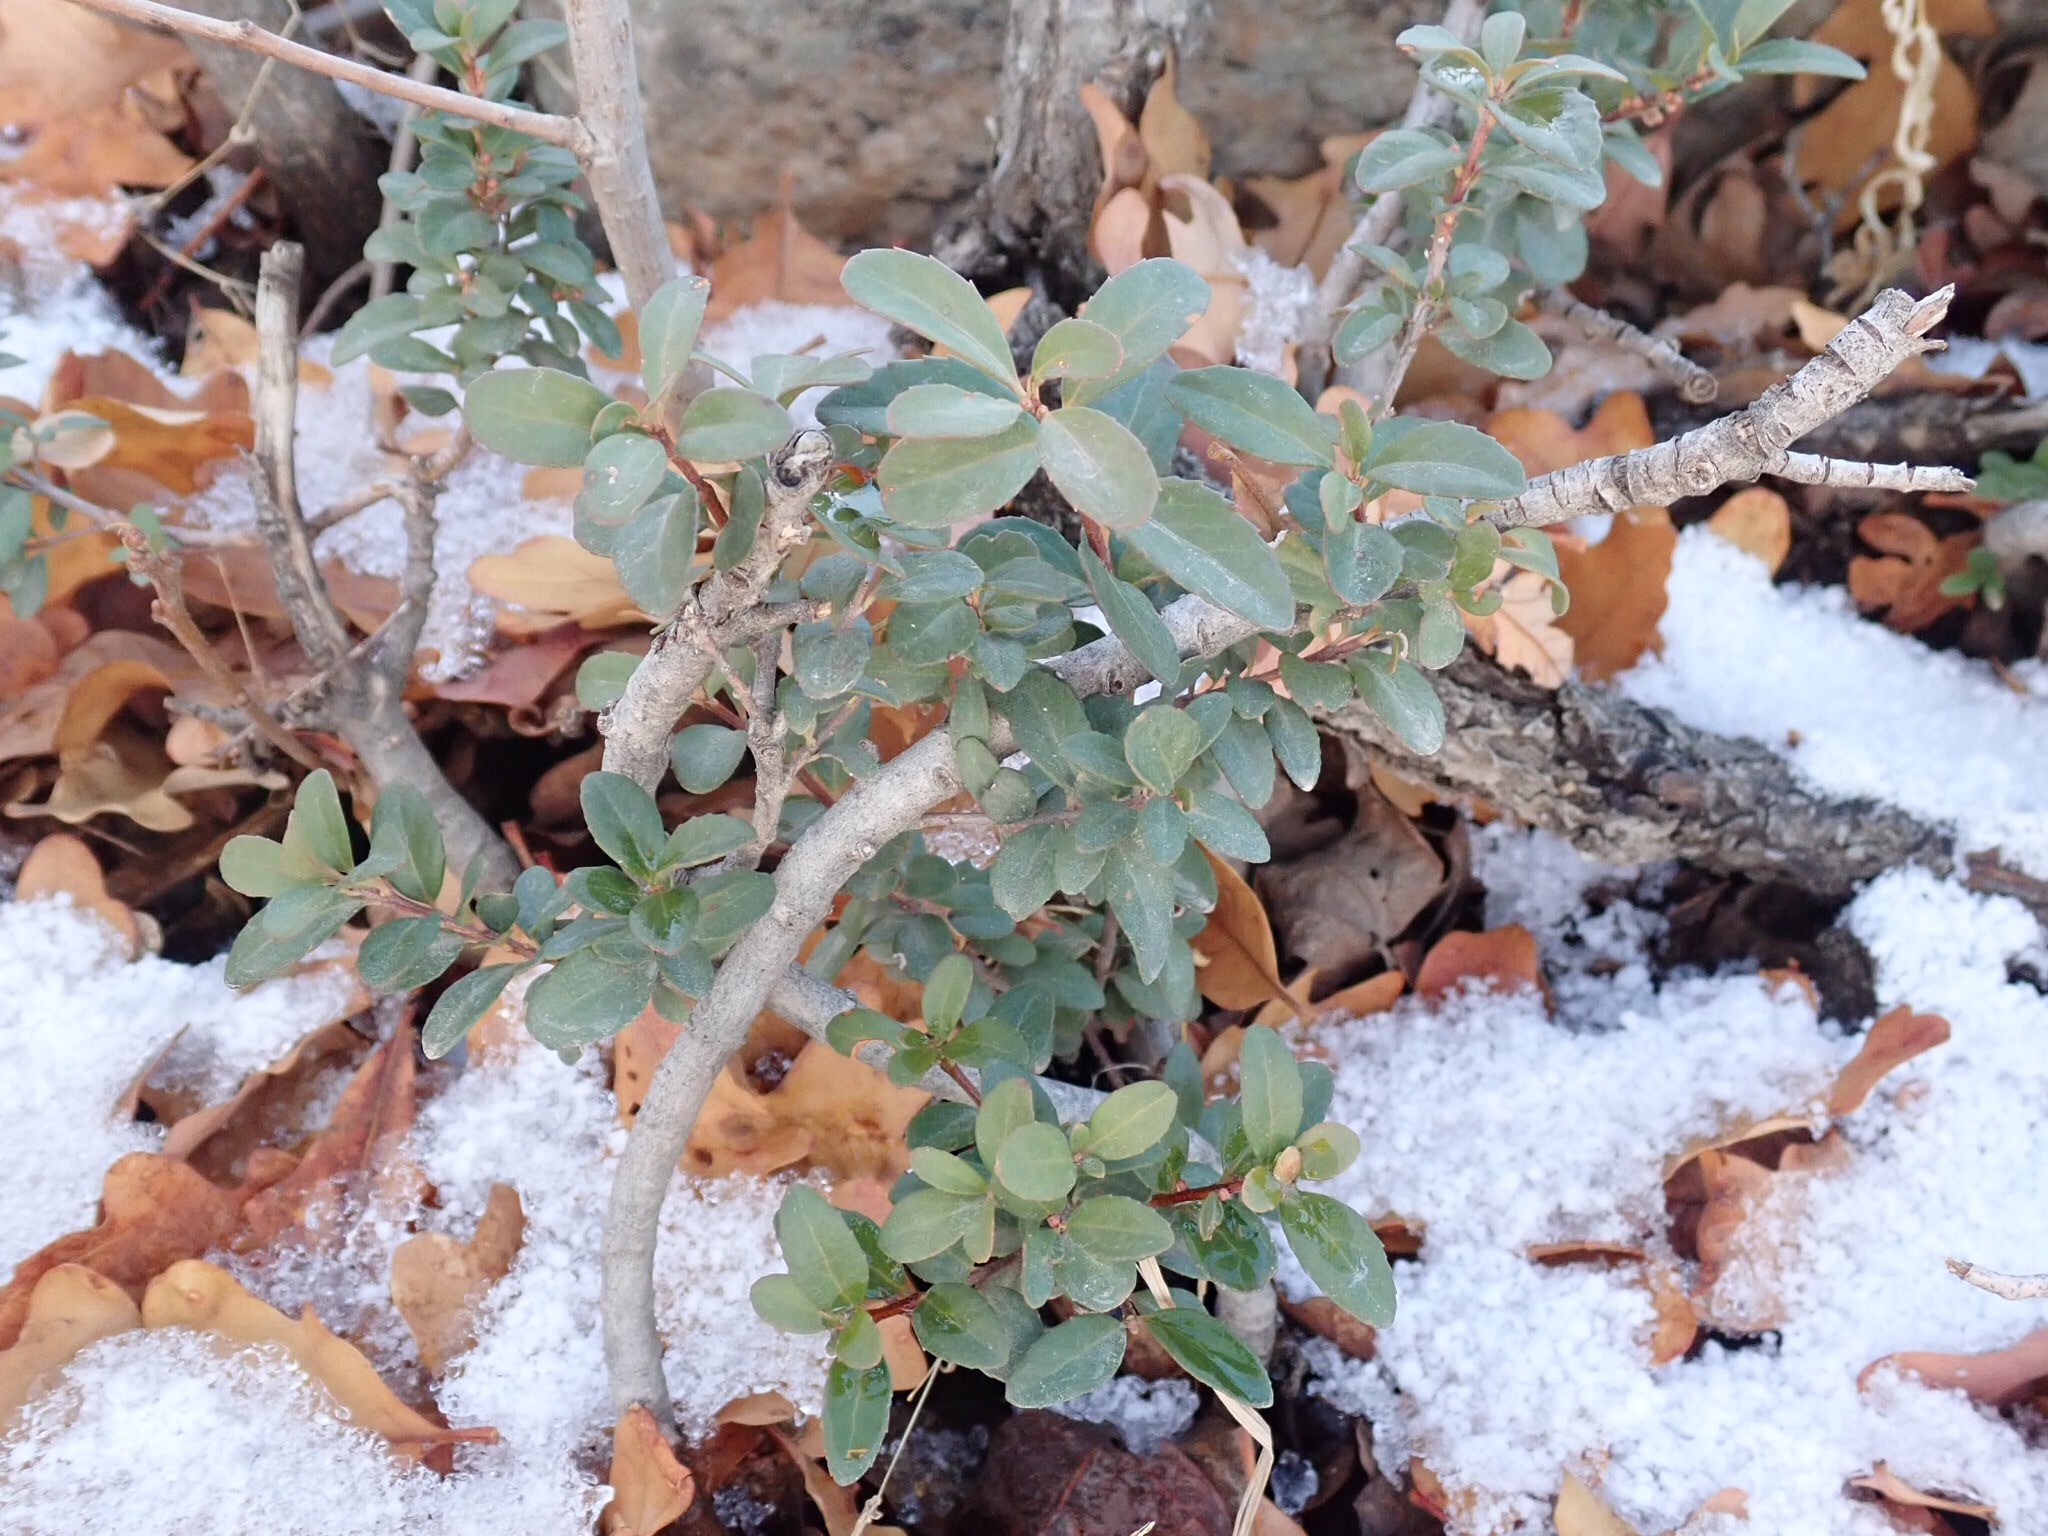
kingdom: Plantae
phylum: Tracheophyta
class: Magnoliopsida
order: Celastrales
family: Celastraceae
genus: Paxistima
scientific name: Paxistima myrsinites
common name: Mountain-lover
